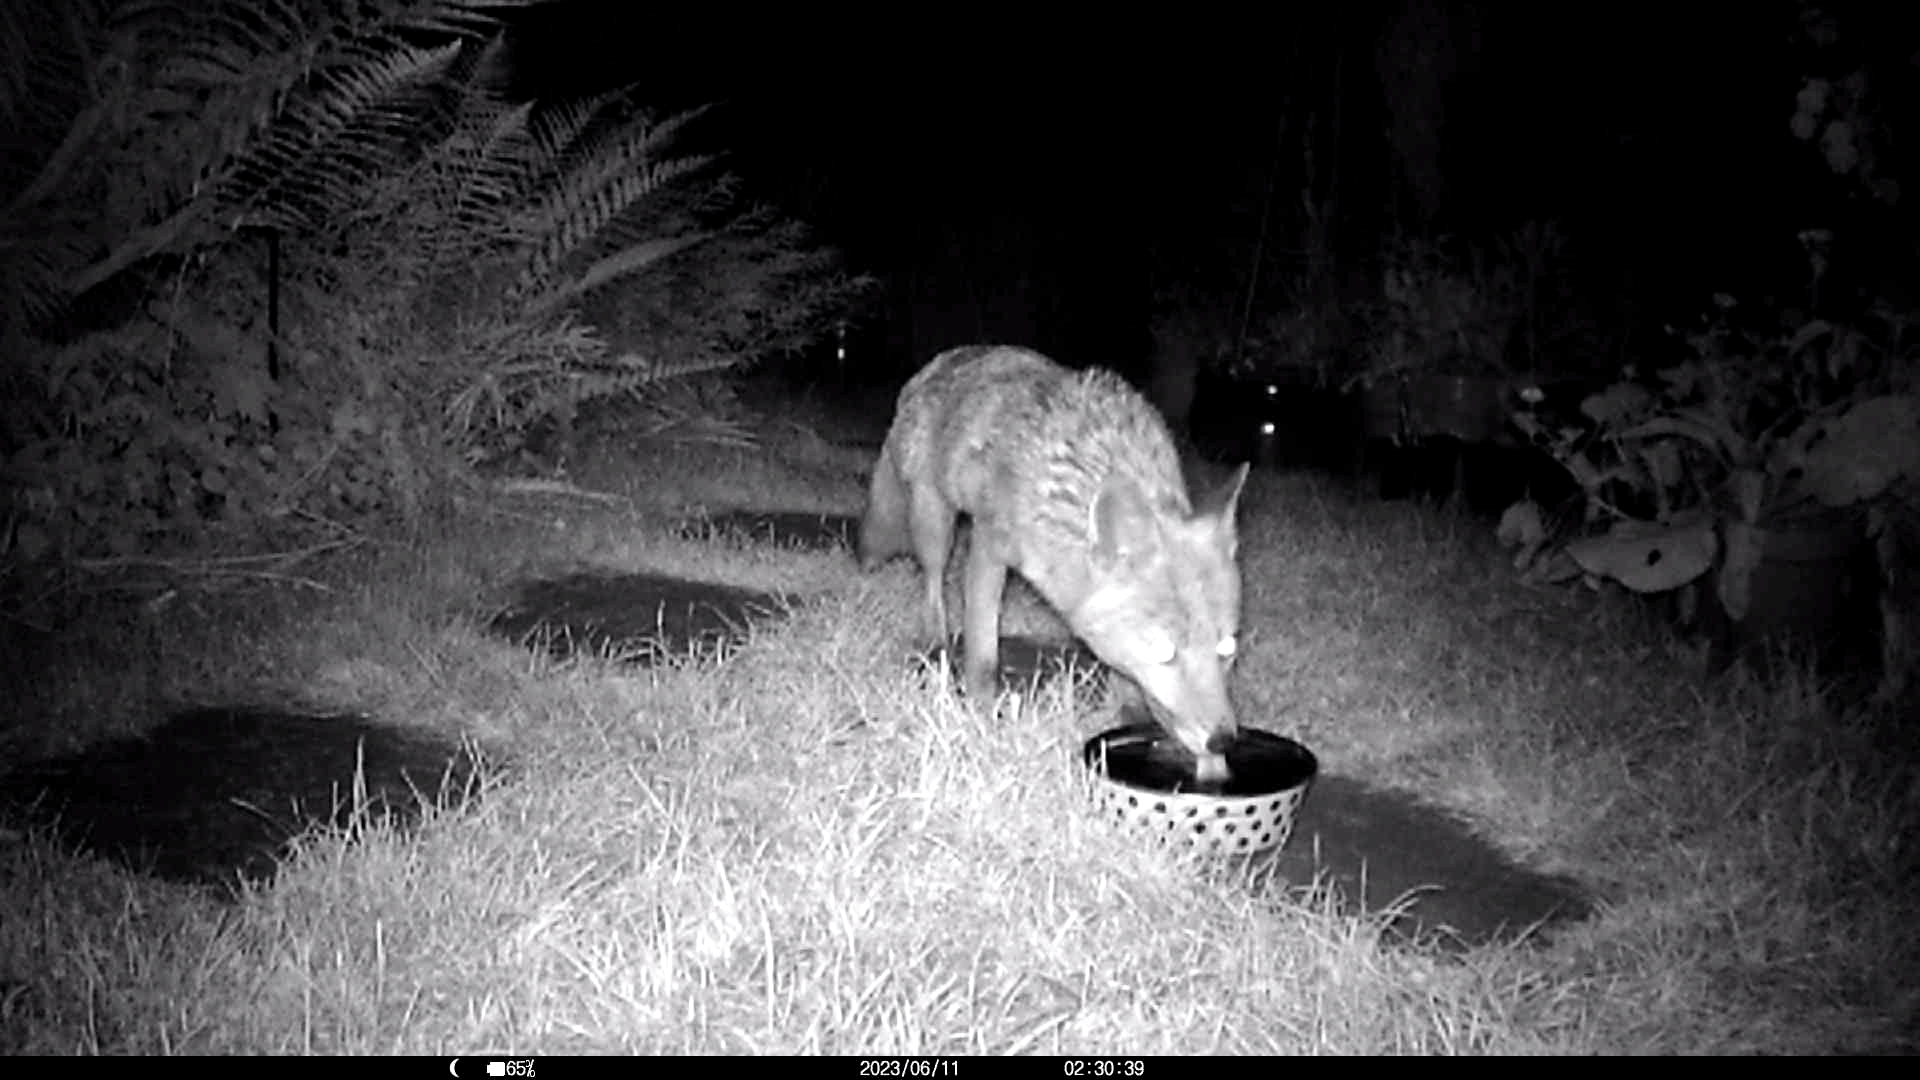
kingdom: Animalia
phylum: Chordata
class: Mammalia
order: Carnivora
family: Canidae
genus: Vulpes
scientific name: Vulpes vulpes
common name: Red fox
